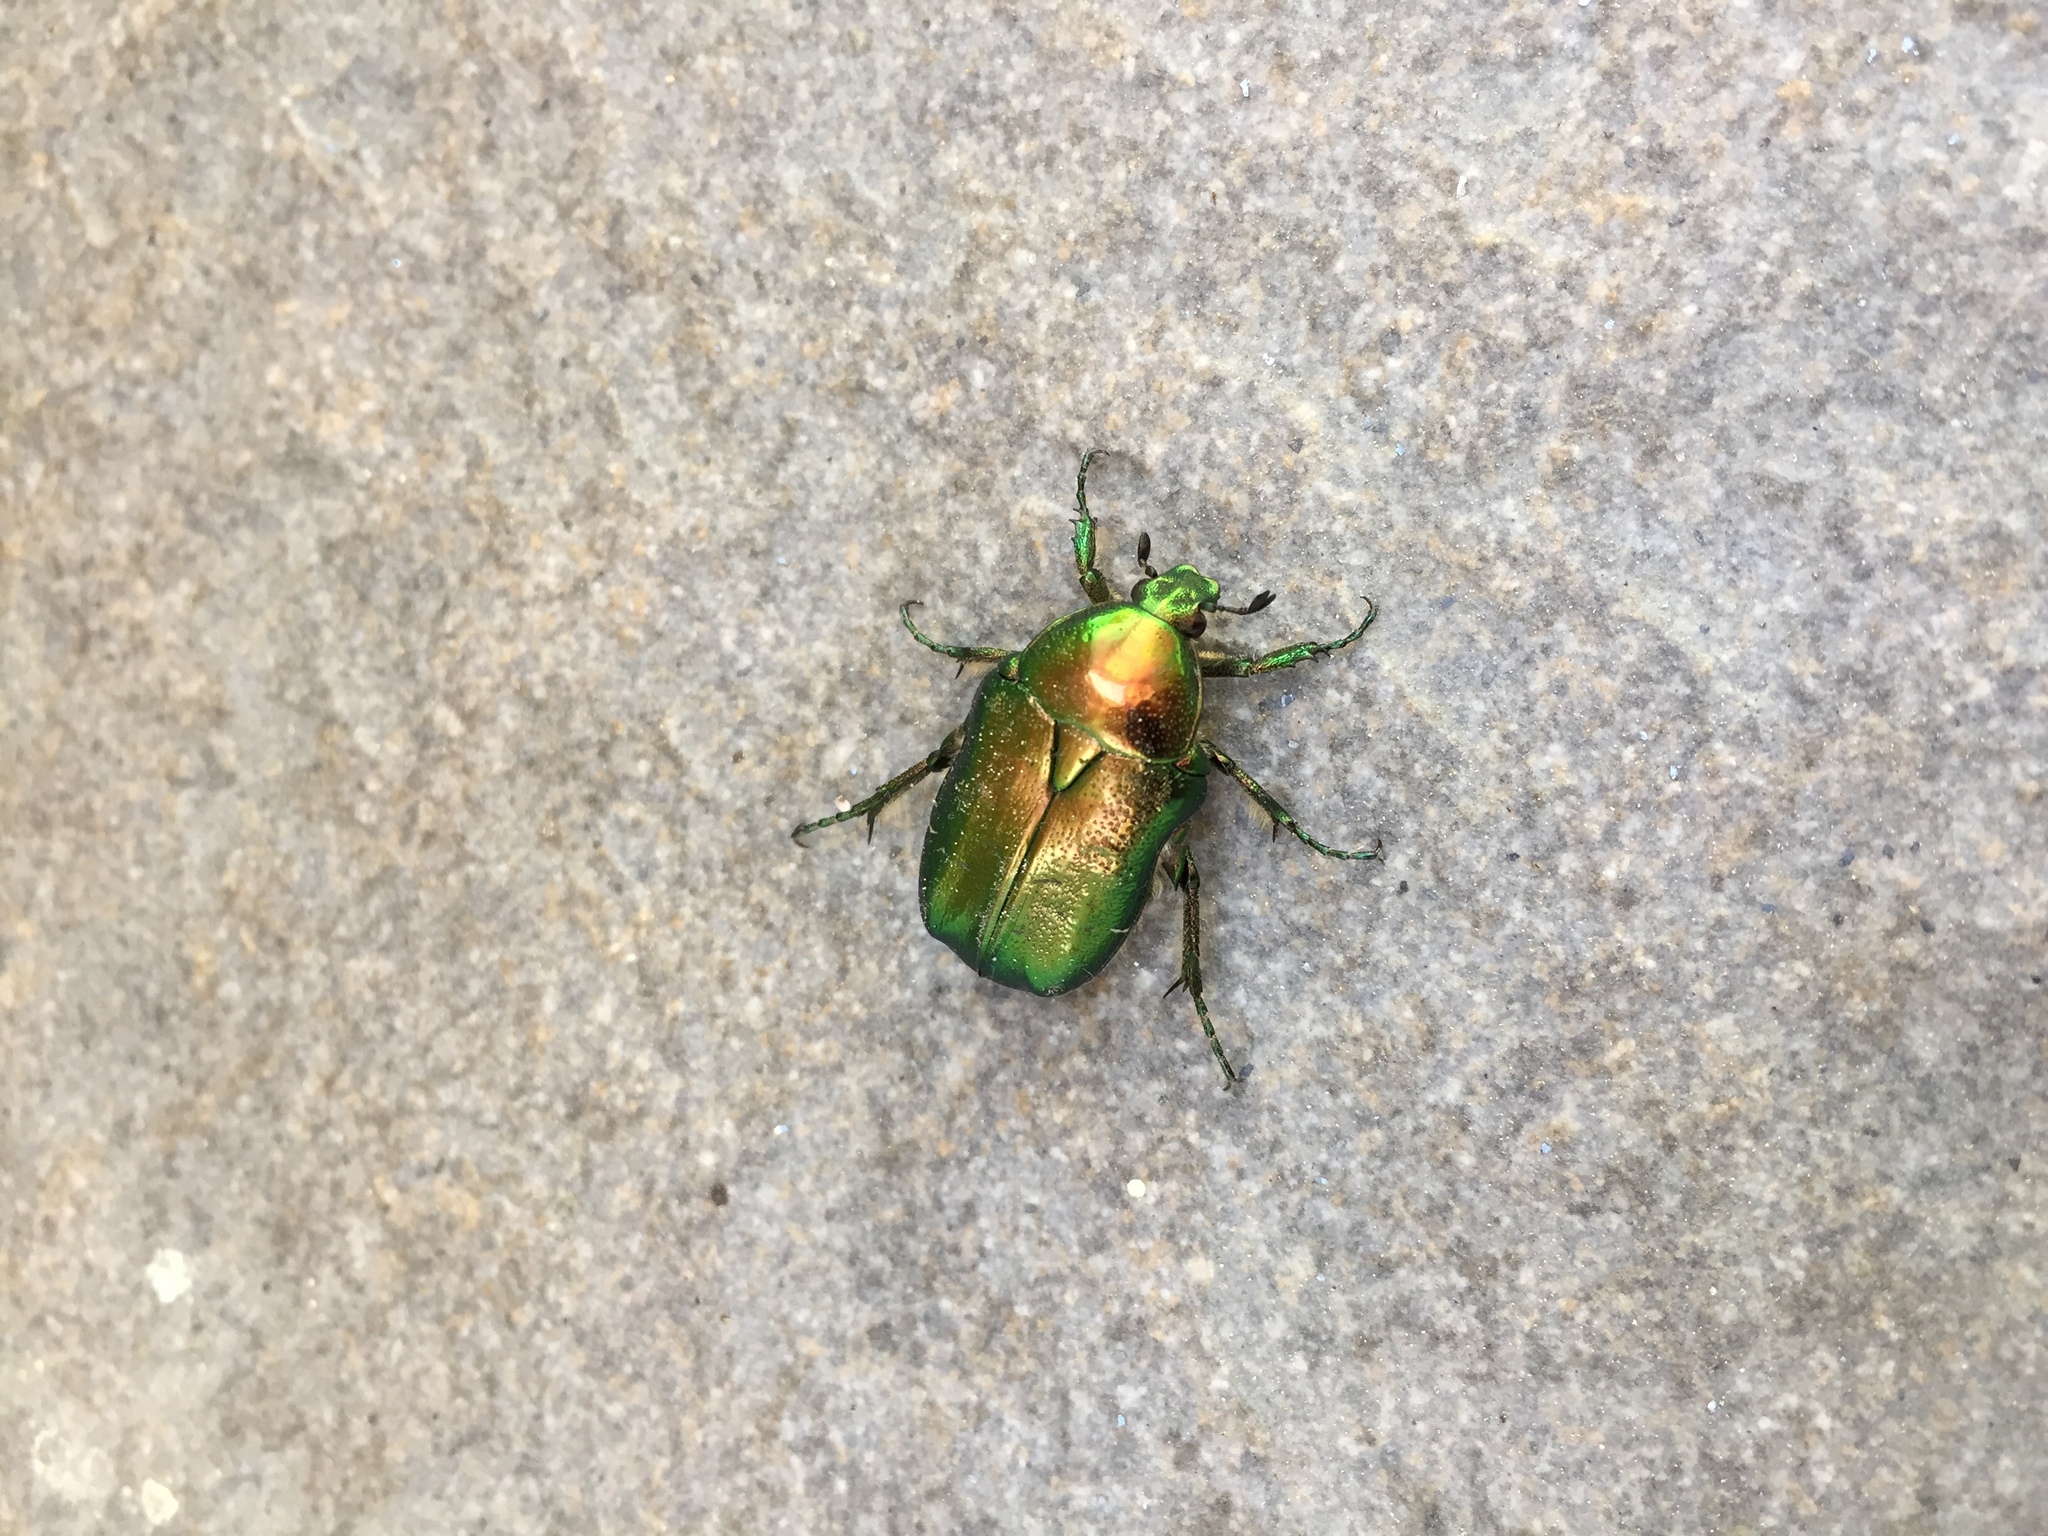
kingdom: Animalia
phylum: Arthropoda
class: Insecta
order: Coleoptera
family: Scarabaeidae
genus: Cetonia
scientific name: Cetonia aurata
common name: Rose chafer
